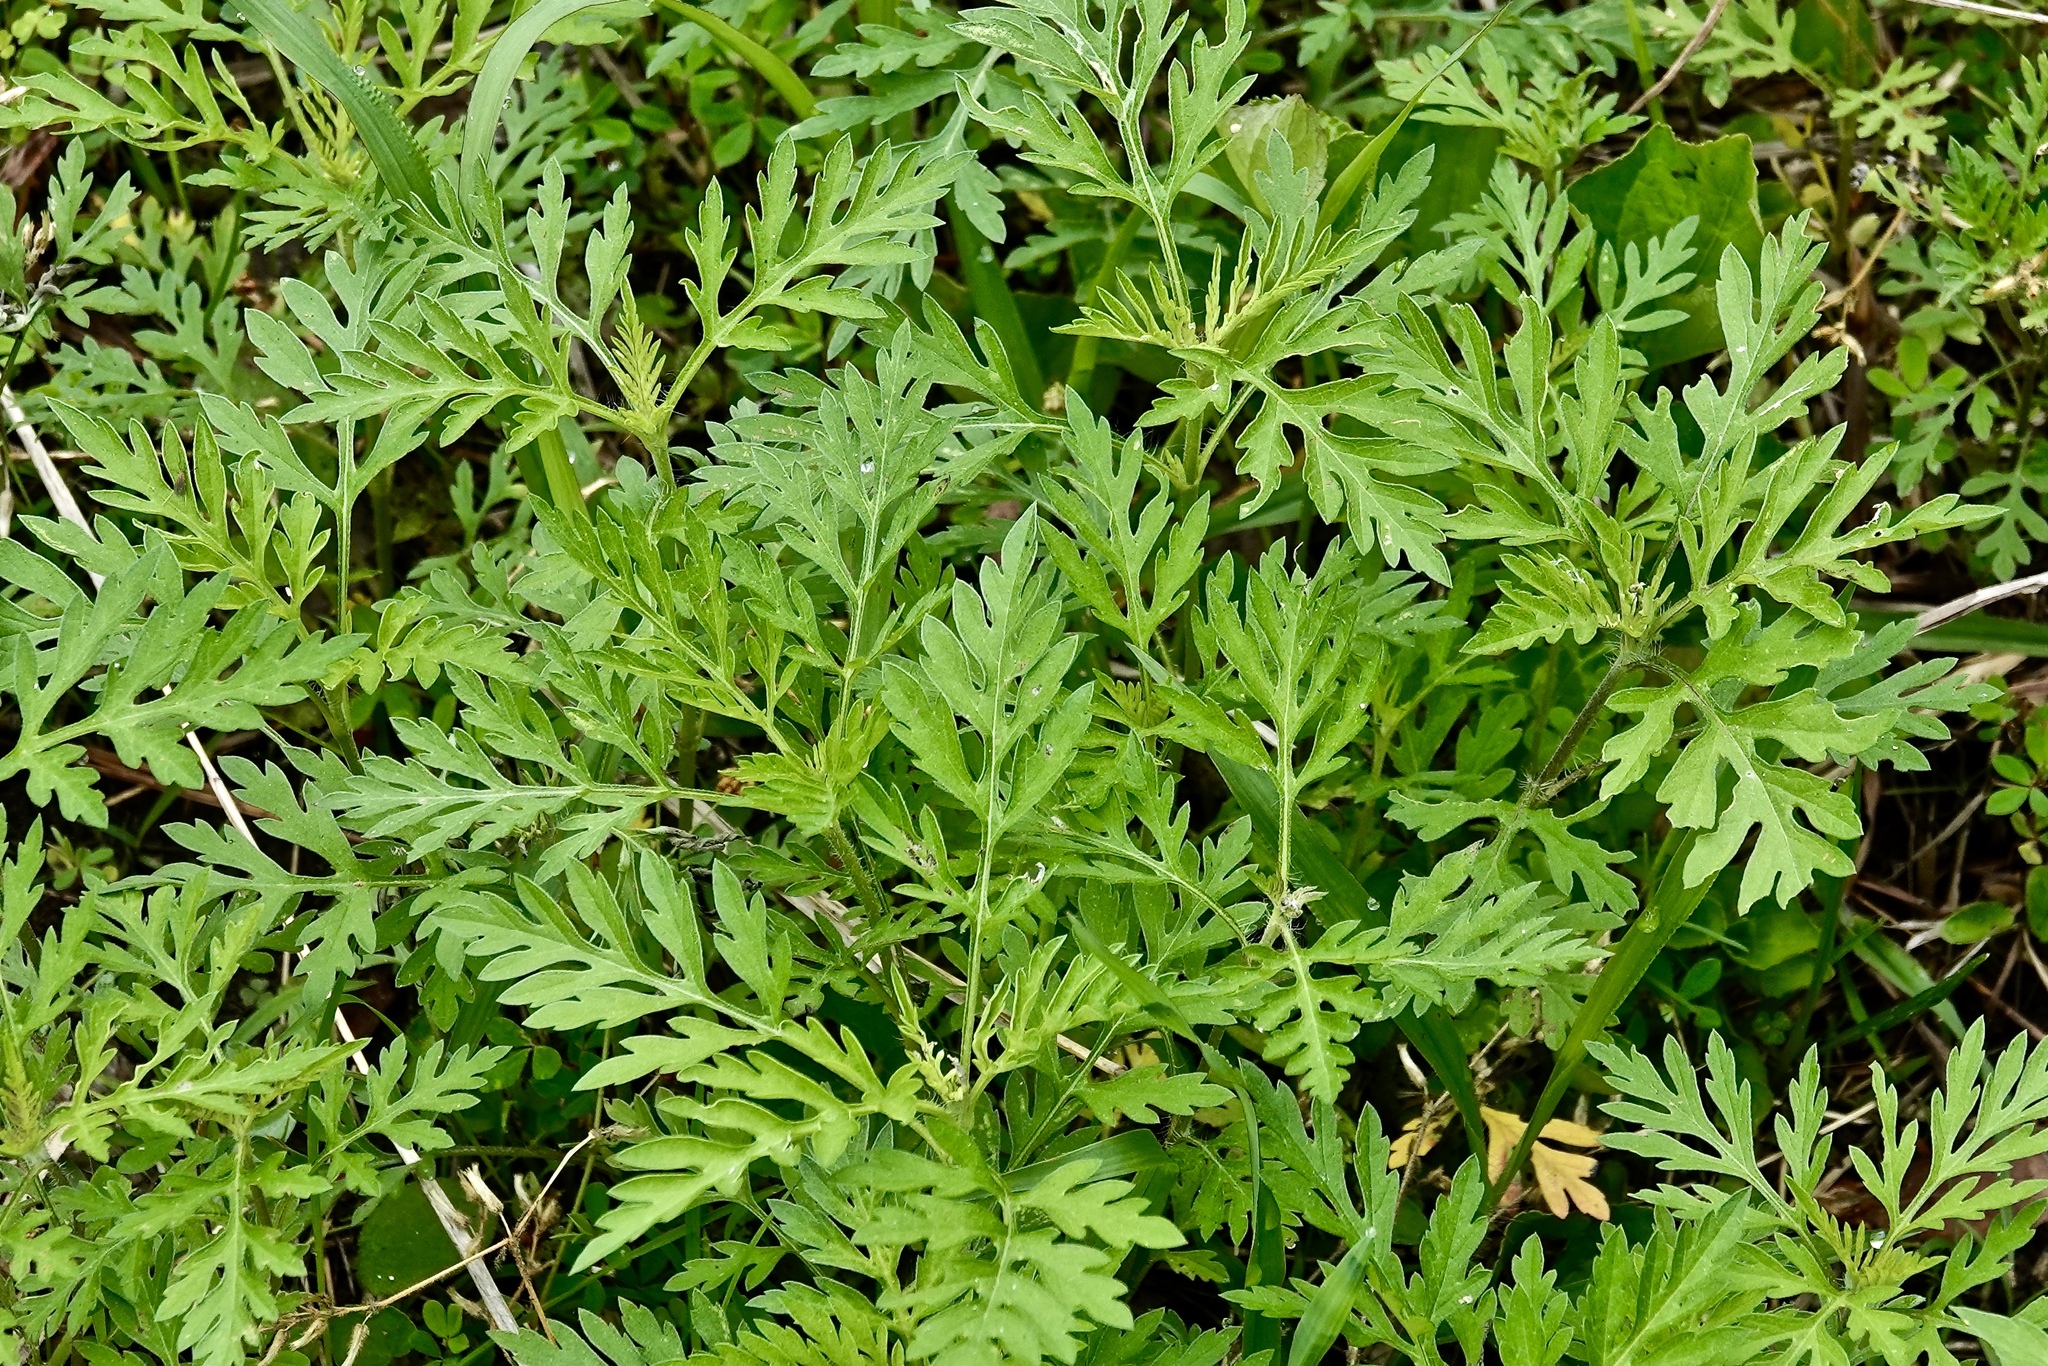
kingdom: Plantae
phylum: Tracheophyta
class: Magnoliopsida
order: Asterales
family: Asteraceae
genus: Ambrosia
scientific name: Ambrosia artemisiifolia
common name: Annual ragweed
